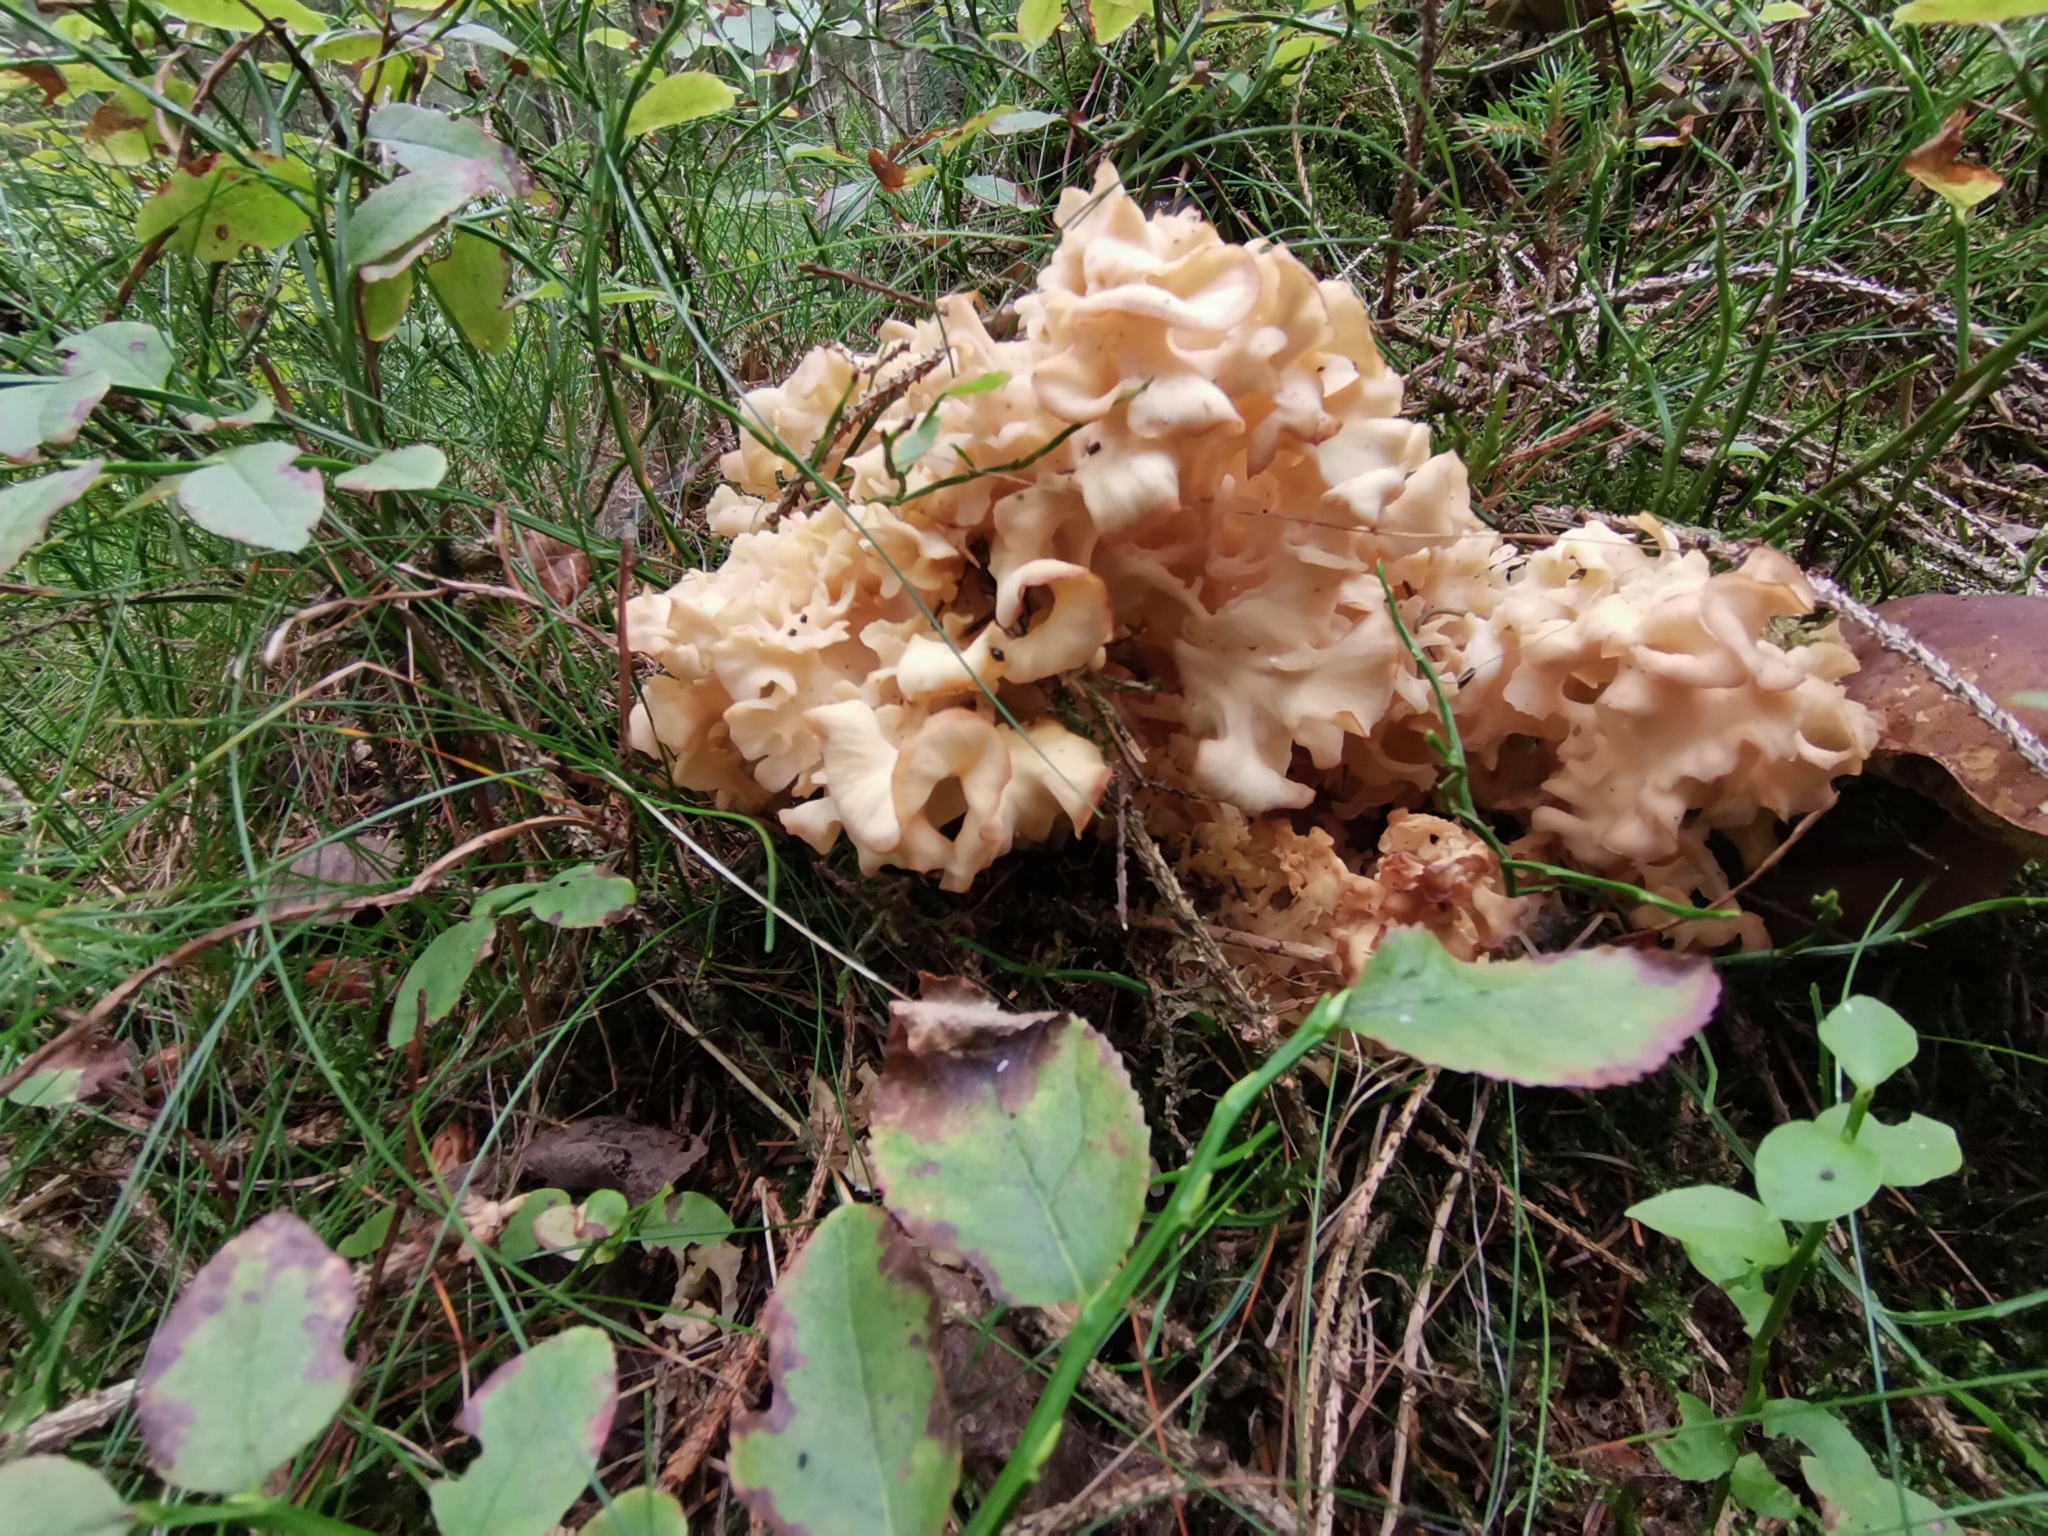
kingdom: Fungi
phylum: Basidiomycota
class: Agaricomycetes
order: Polyporales
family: Sparassidaceae
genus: Sparassis
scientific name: Sparassis crispa
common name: Brain fungus
